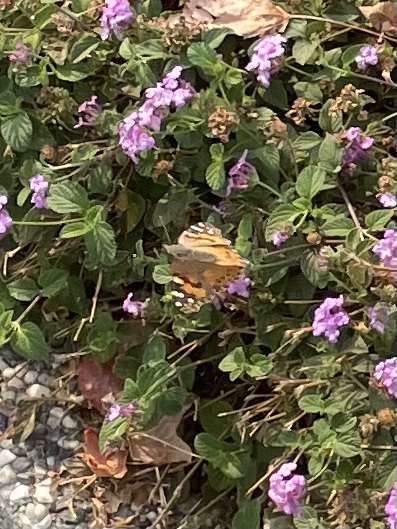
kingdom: Animalia
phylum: Arthropoda
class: Insecta
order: Lepidoptera
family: Nymphalidae
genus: Vanessa
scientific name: Vanessa cardui
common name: Painted lady
